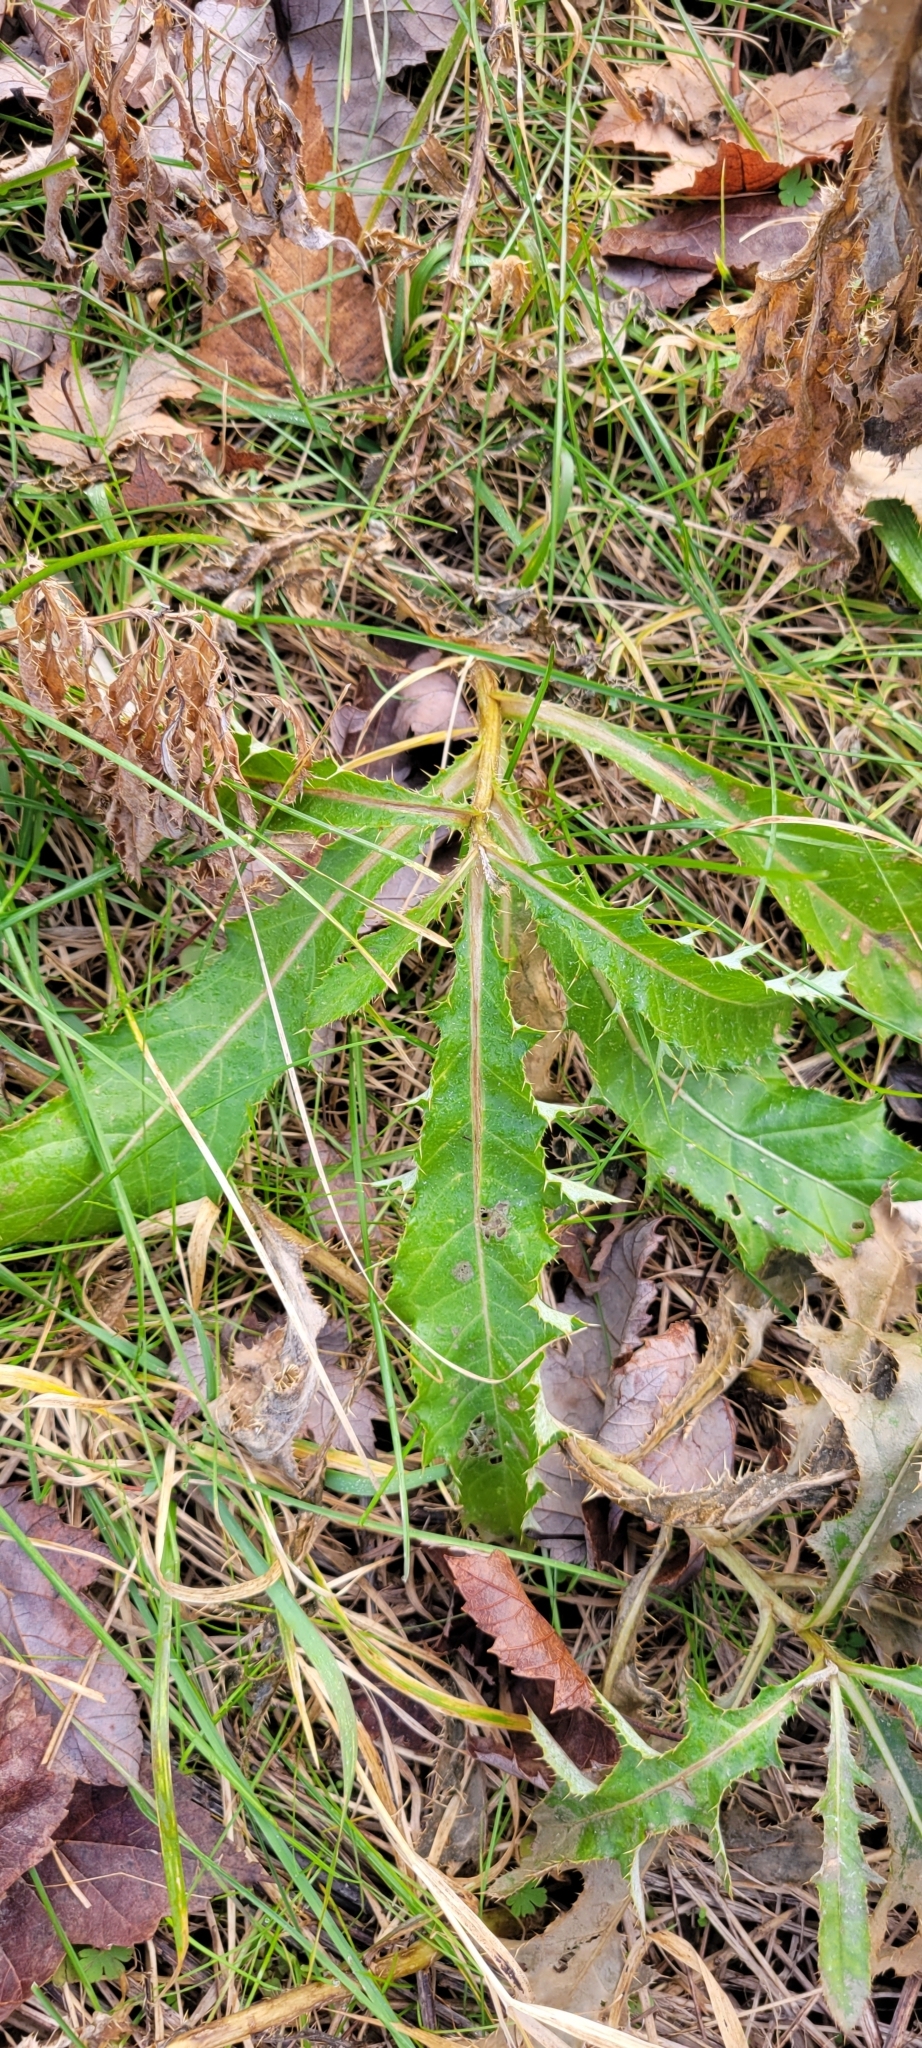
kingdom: Plantae
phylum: Tracheophyta
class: Magnoliopsida
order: Asterales
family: Asteraceae
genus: Cirsium
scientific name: Cirsium arvense
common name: Creeping thistle
